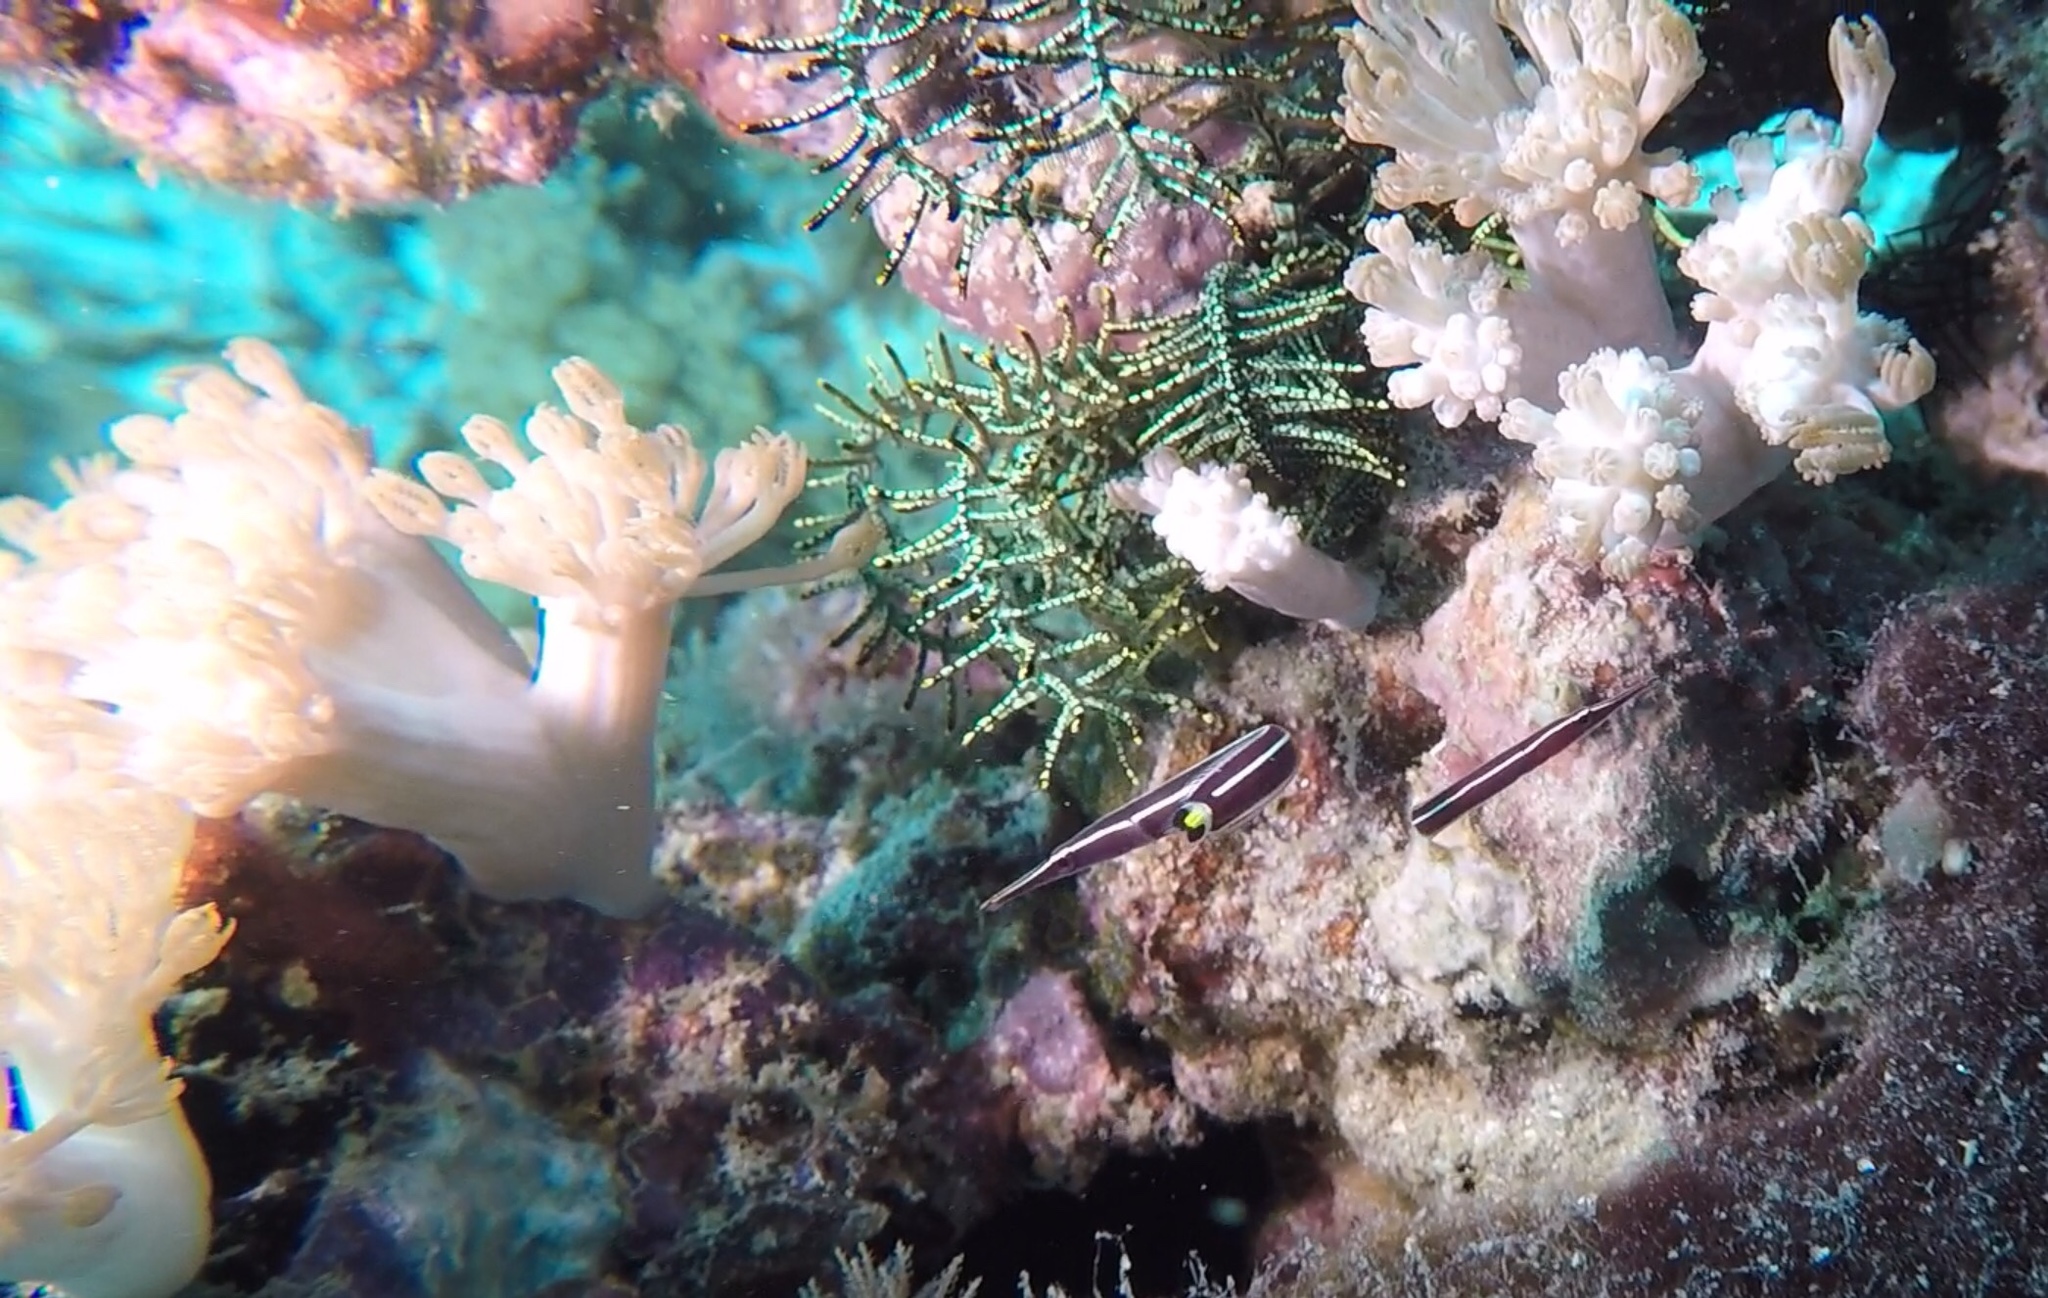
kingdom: Animalia
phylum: Chordata
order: Gobiesociformes
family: Gobiesocidae
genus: Diademichthys
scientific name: Diademichthys lineatus
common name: Urchin clingfish
